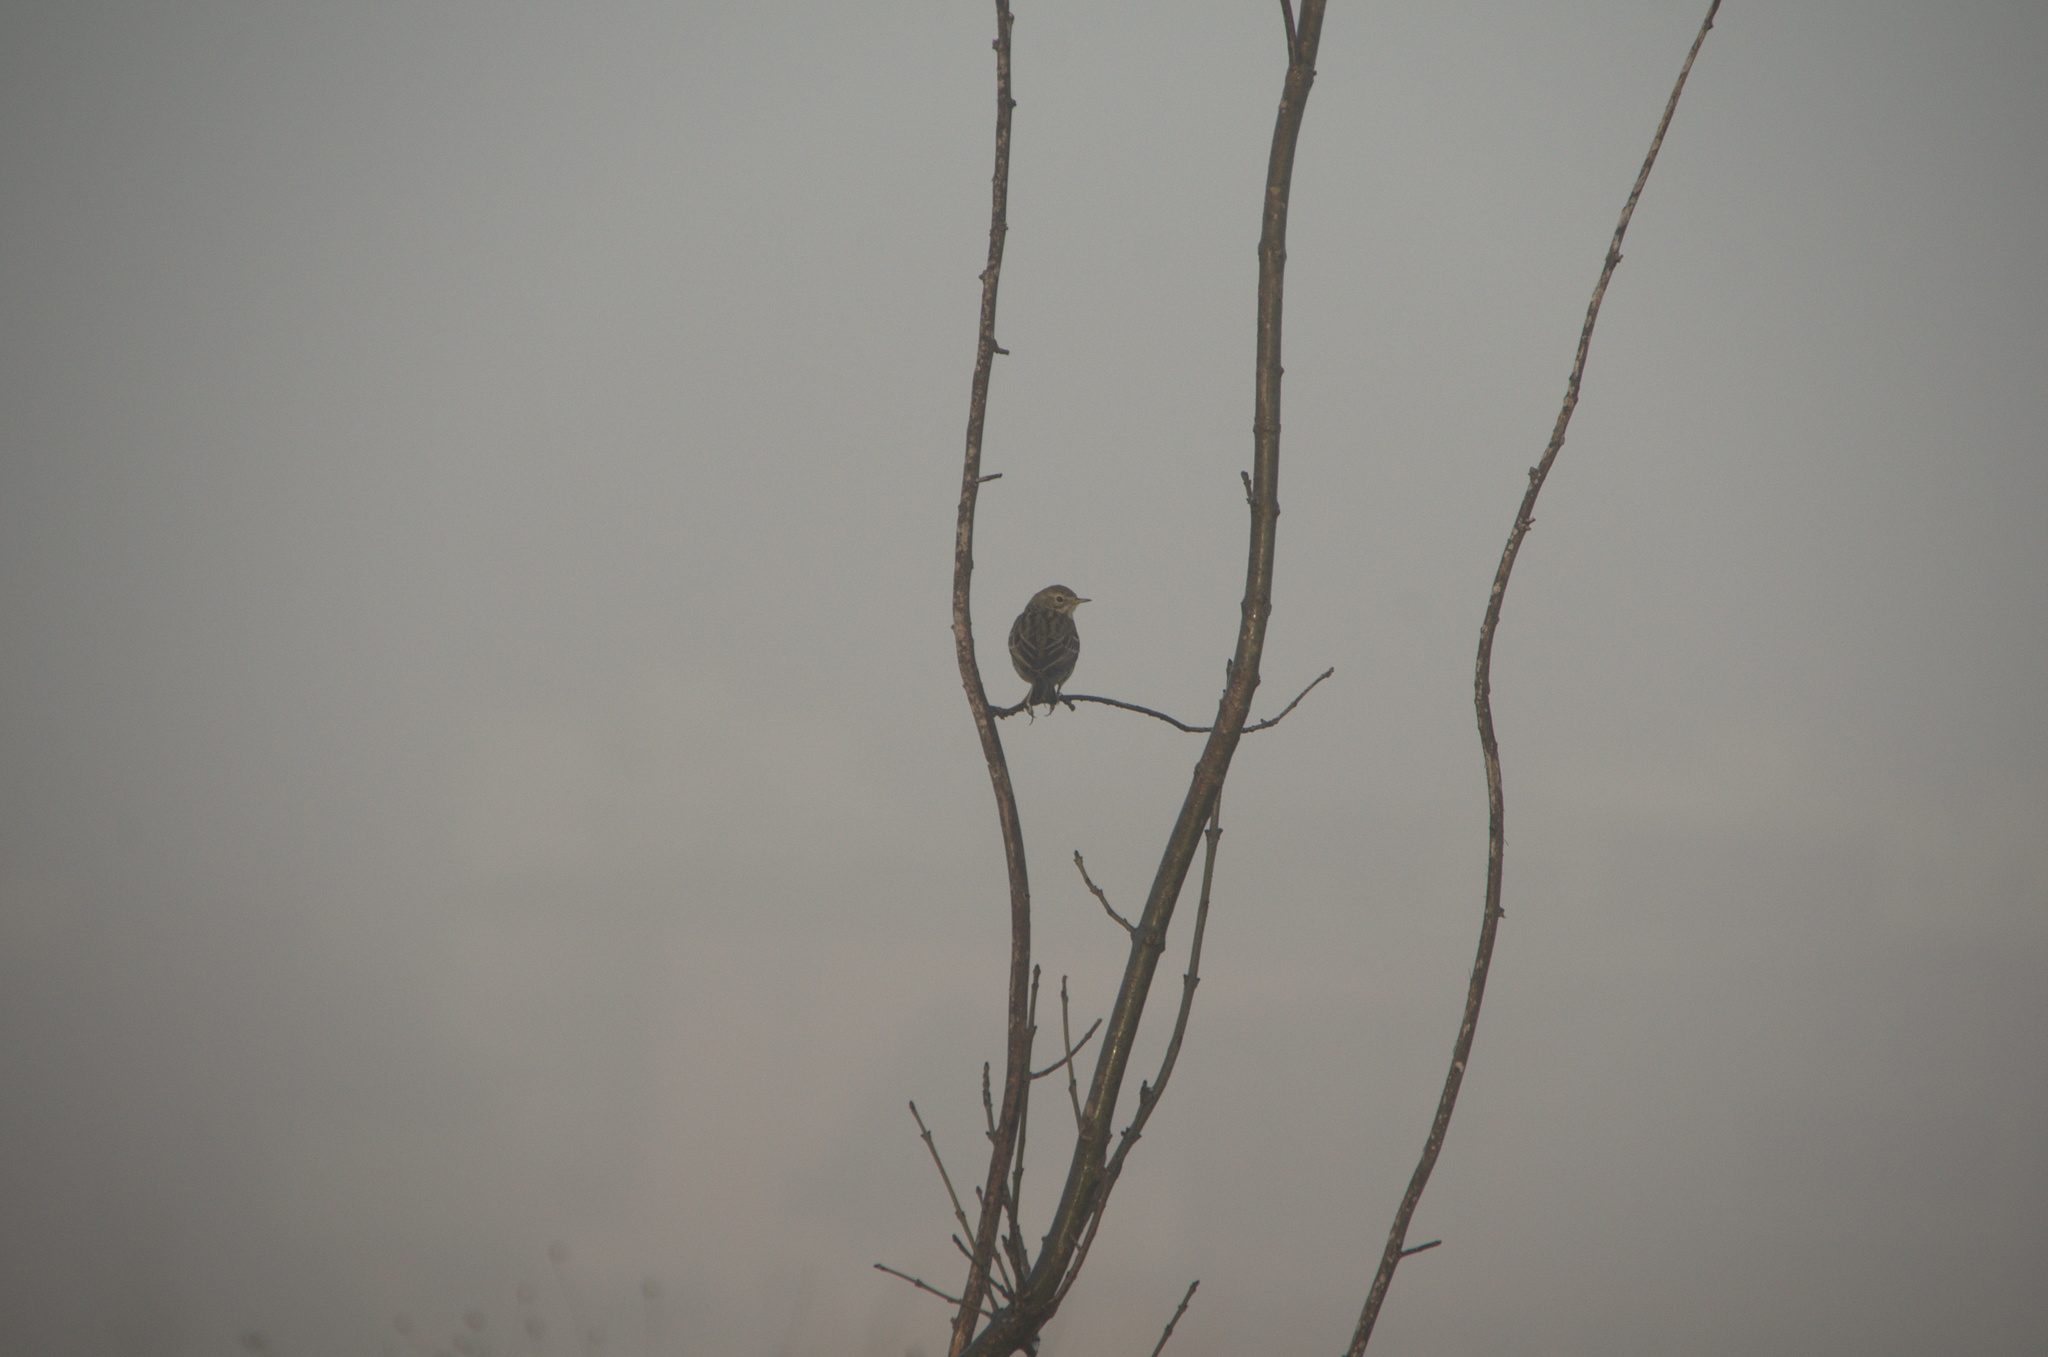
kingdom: Animalia
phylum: Chordata
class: Aves
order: Passeriformes
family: Motacillidae
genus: Anthus
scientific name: Anthus pratensis
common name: Meadow pipit
